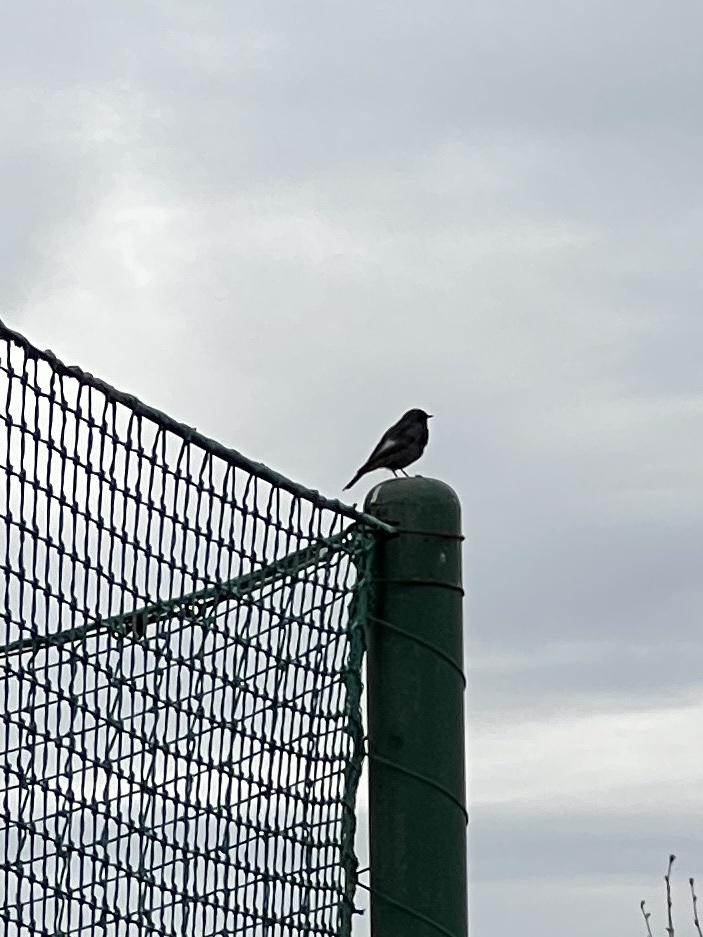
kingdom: Animalia
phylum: Chordata
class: Aves
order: Passeriformes
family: Muscicapidae
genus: Phoenicurus
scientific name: Phoenicurus ochruros
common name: Black redstart
